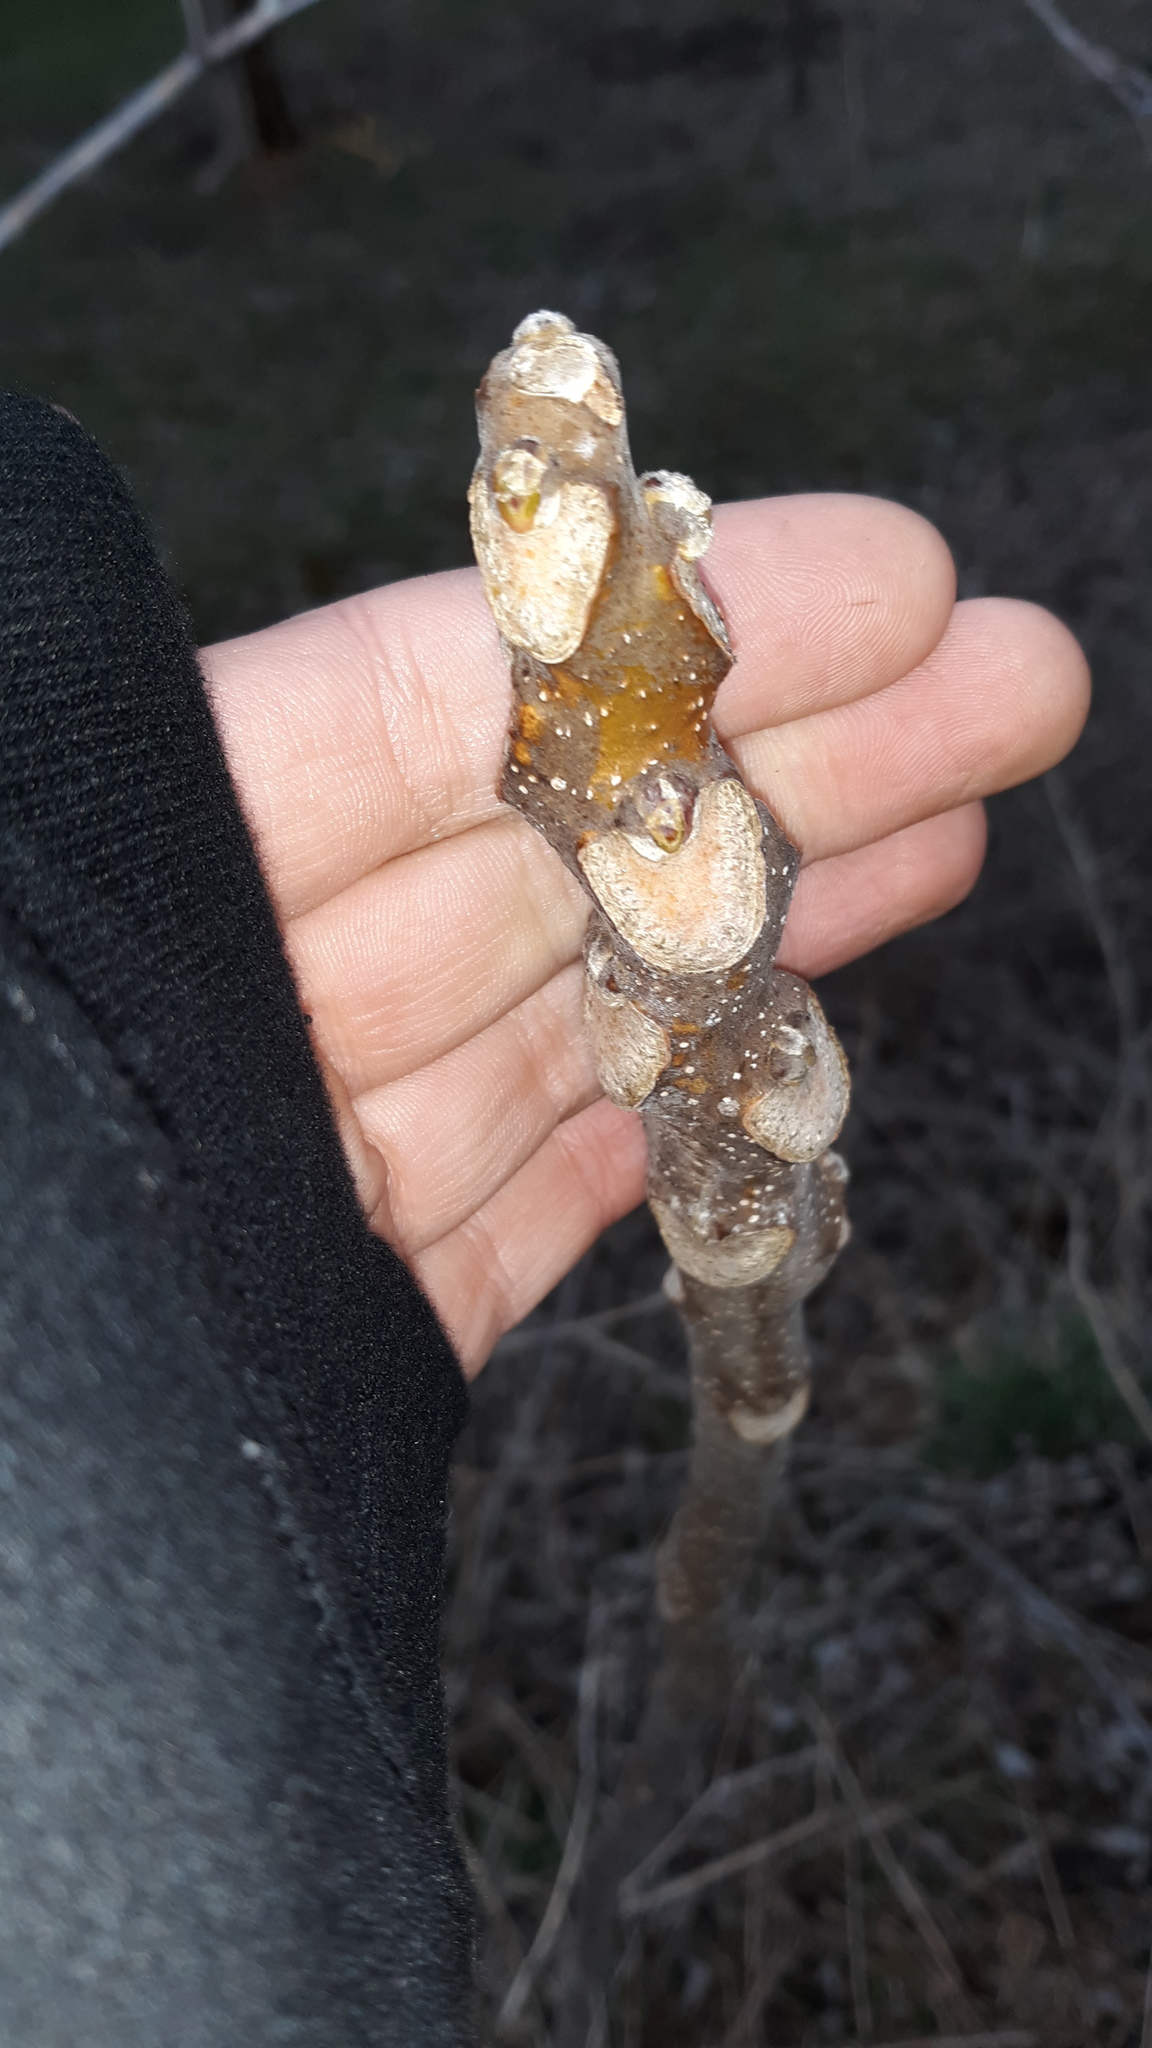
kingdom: Plantae
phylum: Tracheophyta
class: Magnoliopsida
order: Sapindales
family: Simaroubaceae
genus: Ailanthus
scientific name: Ailanthus altissima
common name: Tree-of-heaven
